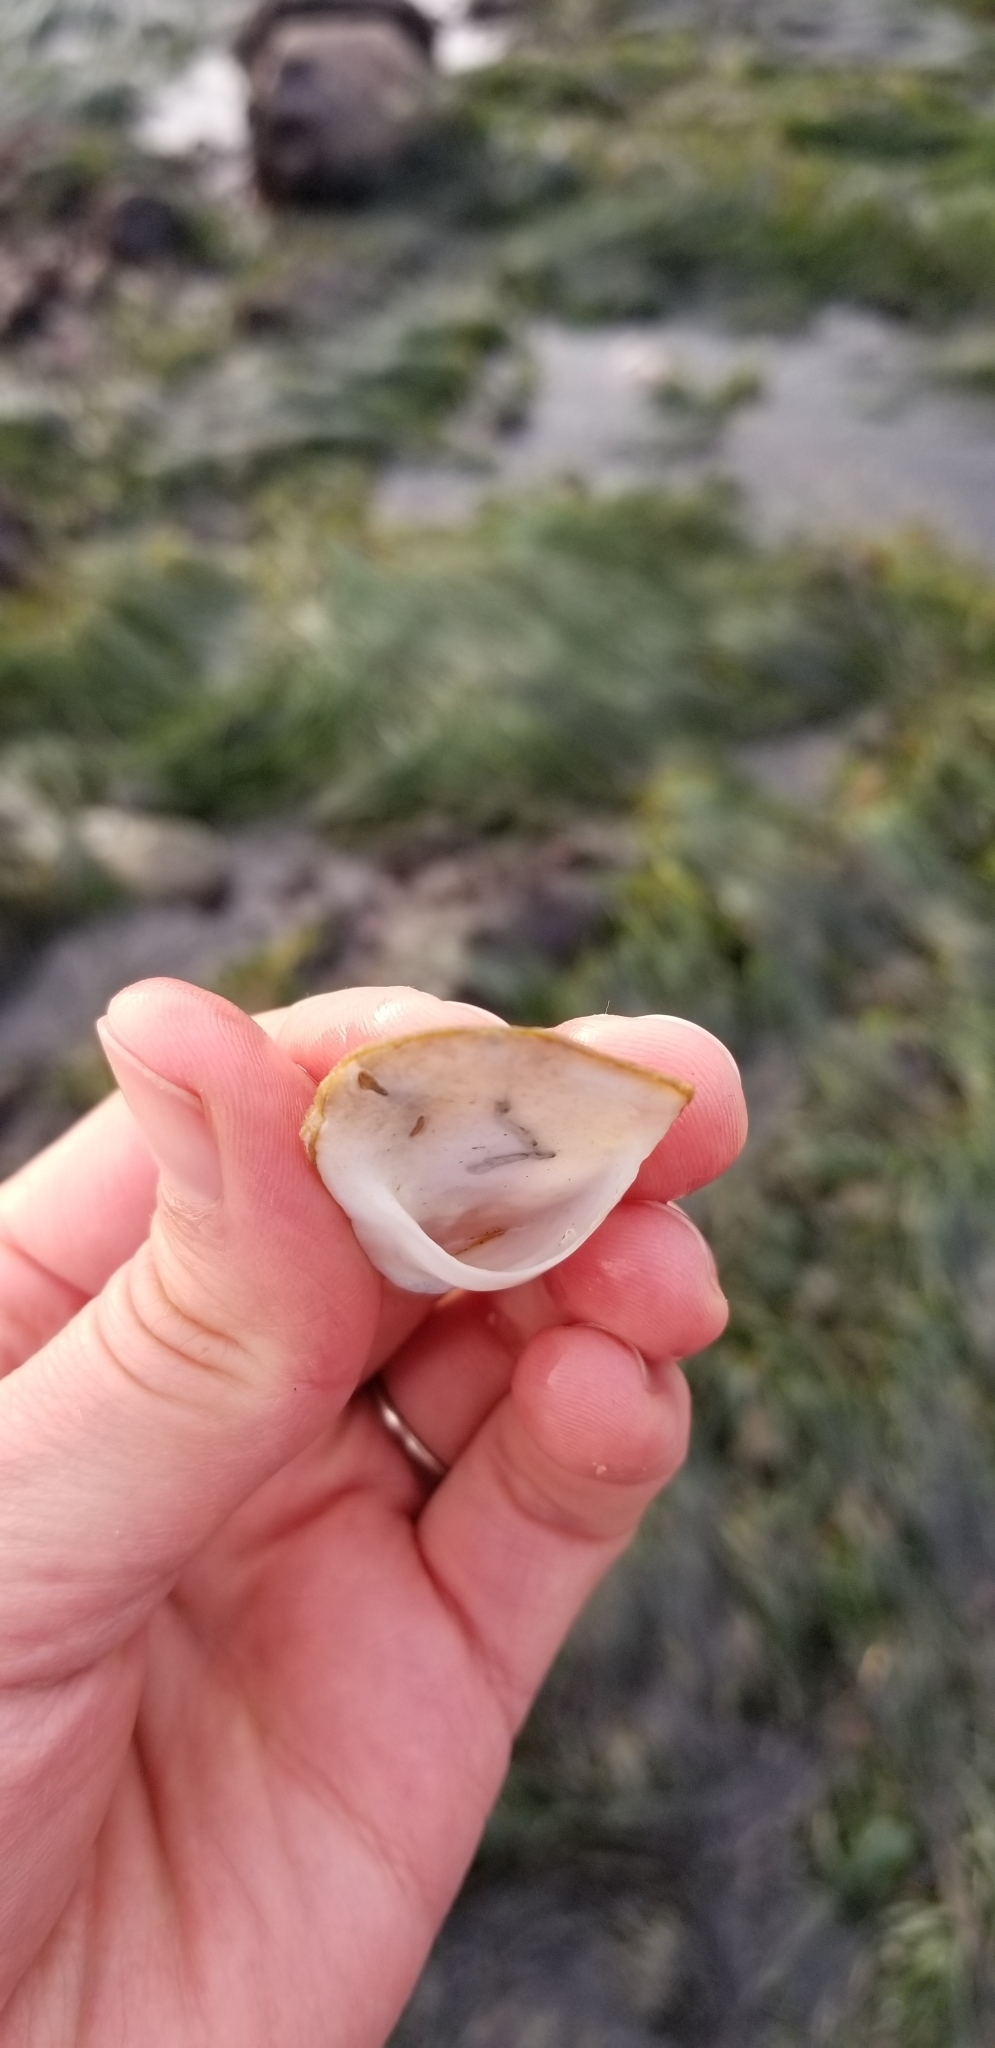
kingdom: Animalia
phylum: Mollusca
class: Gastropoda
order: Littorinimorpha
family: Calyptraeidae
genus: Crepidula
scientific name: Crepidula nummaria
